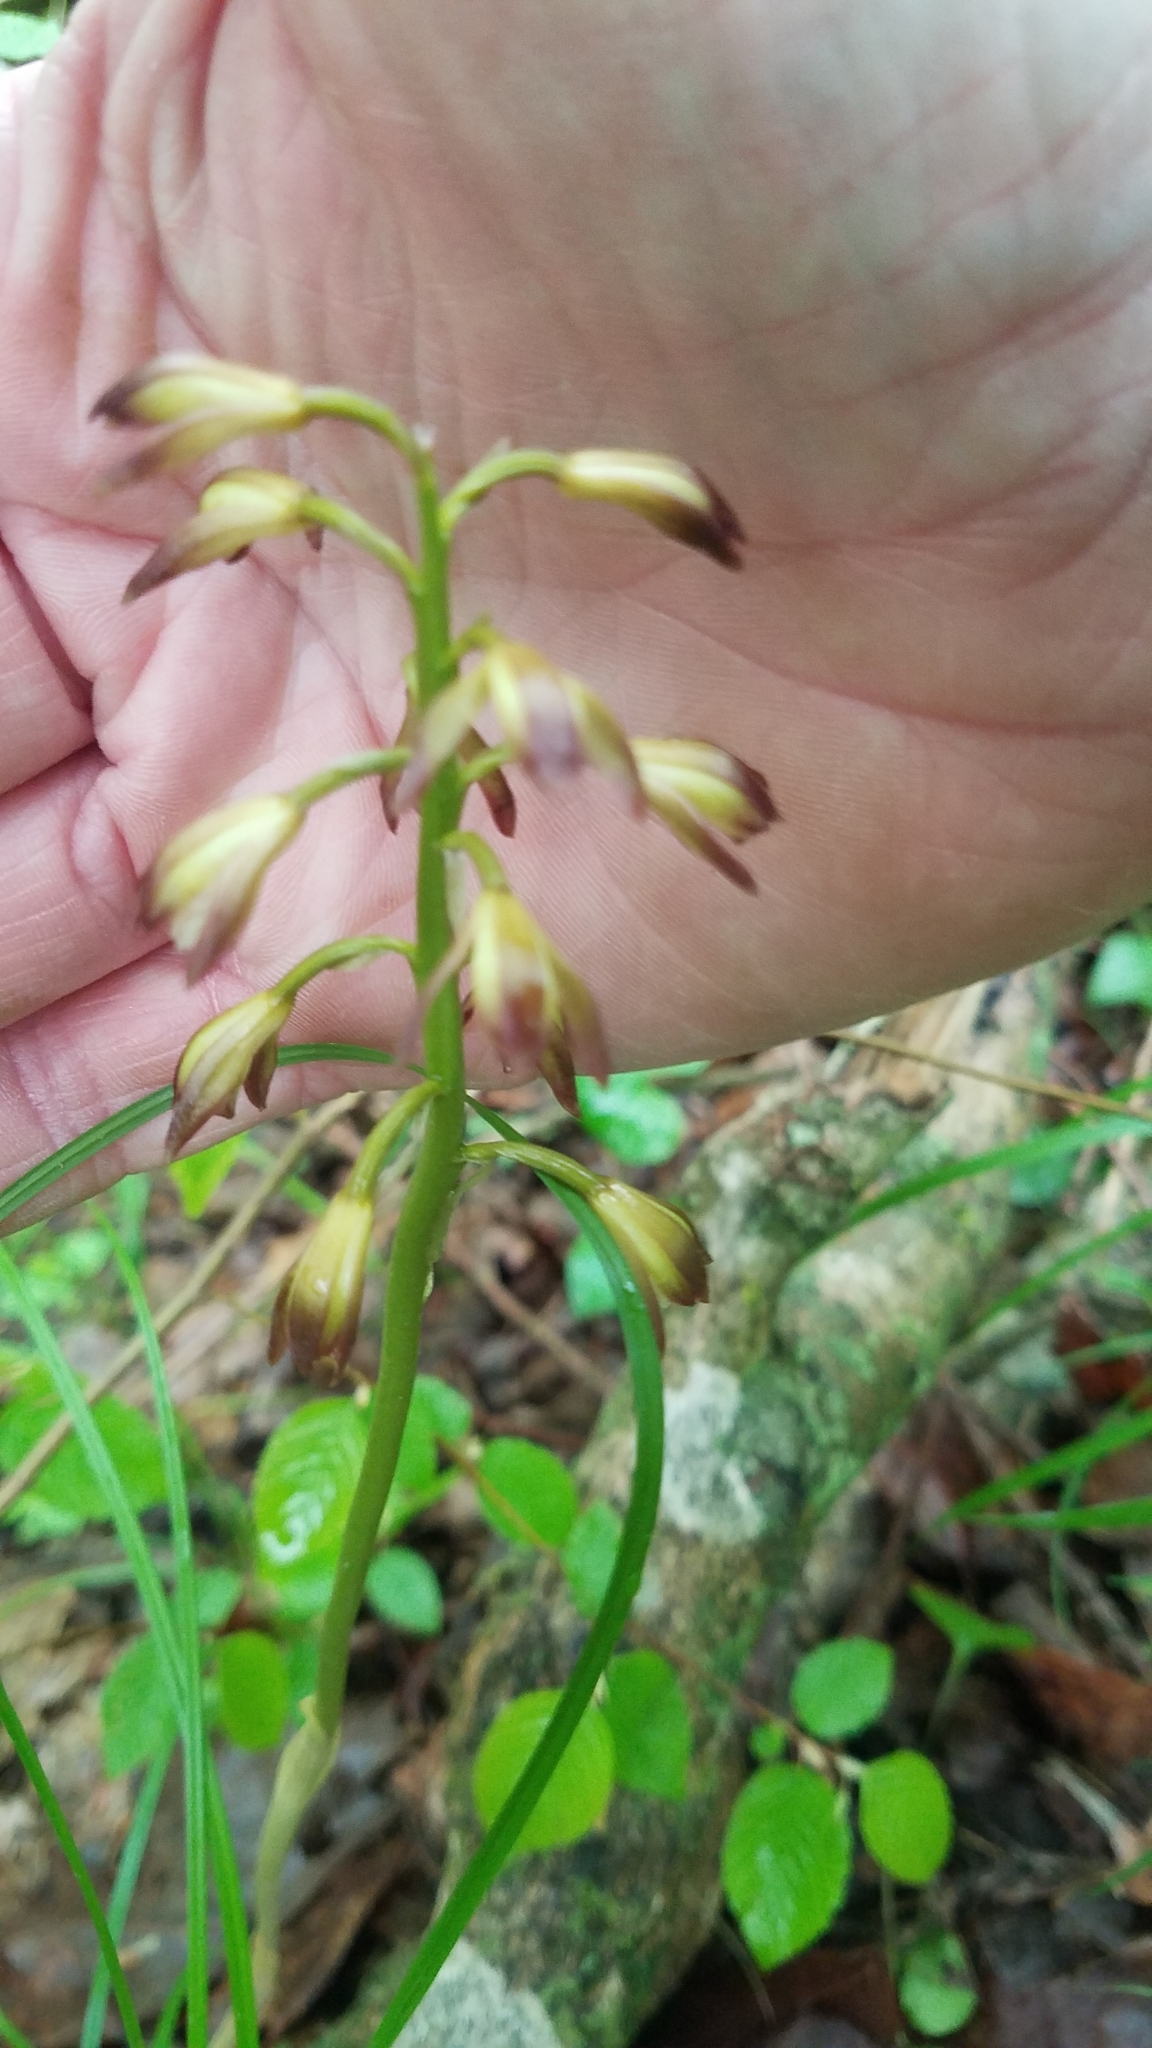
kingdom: Plantae
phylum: Tracheophyta
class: Liliopsida
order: Asparagales
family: Orchidaceae
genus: Aplectrum
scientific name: Aplectrum hyemale
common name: Adam-and-eve
